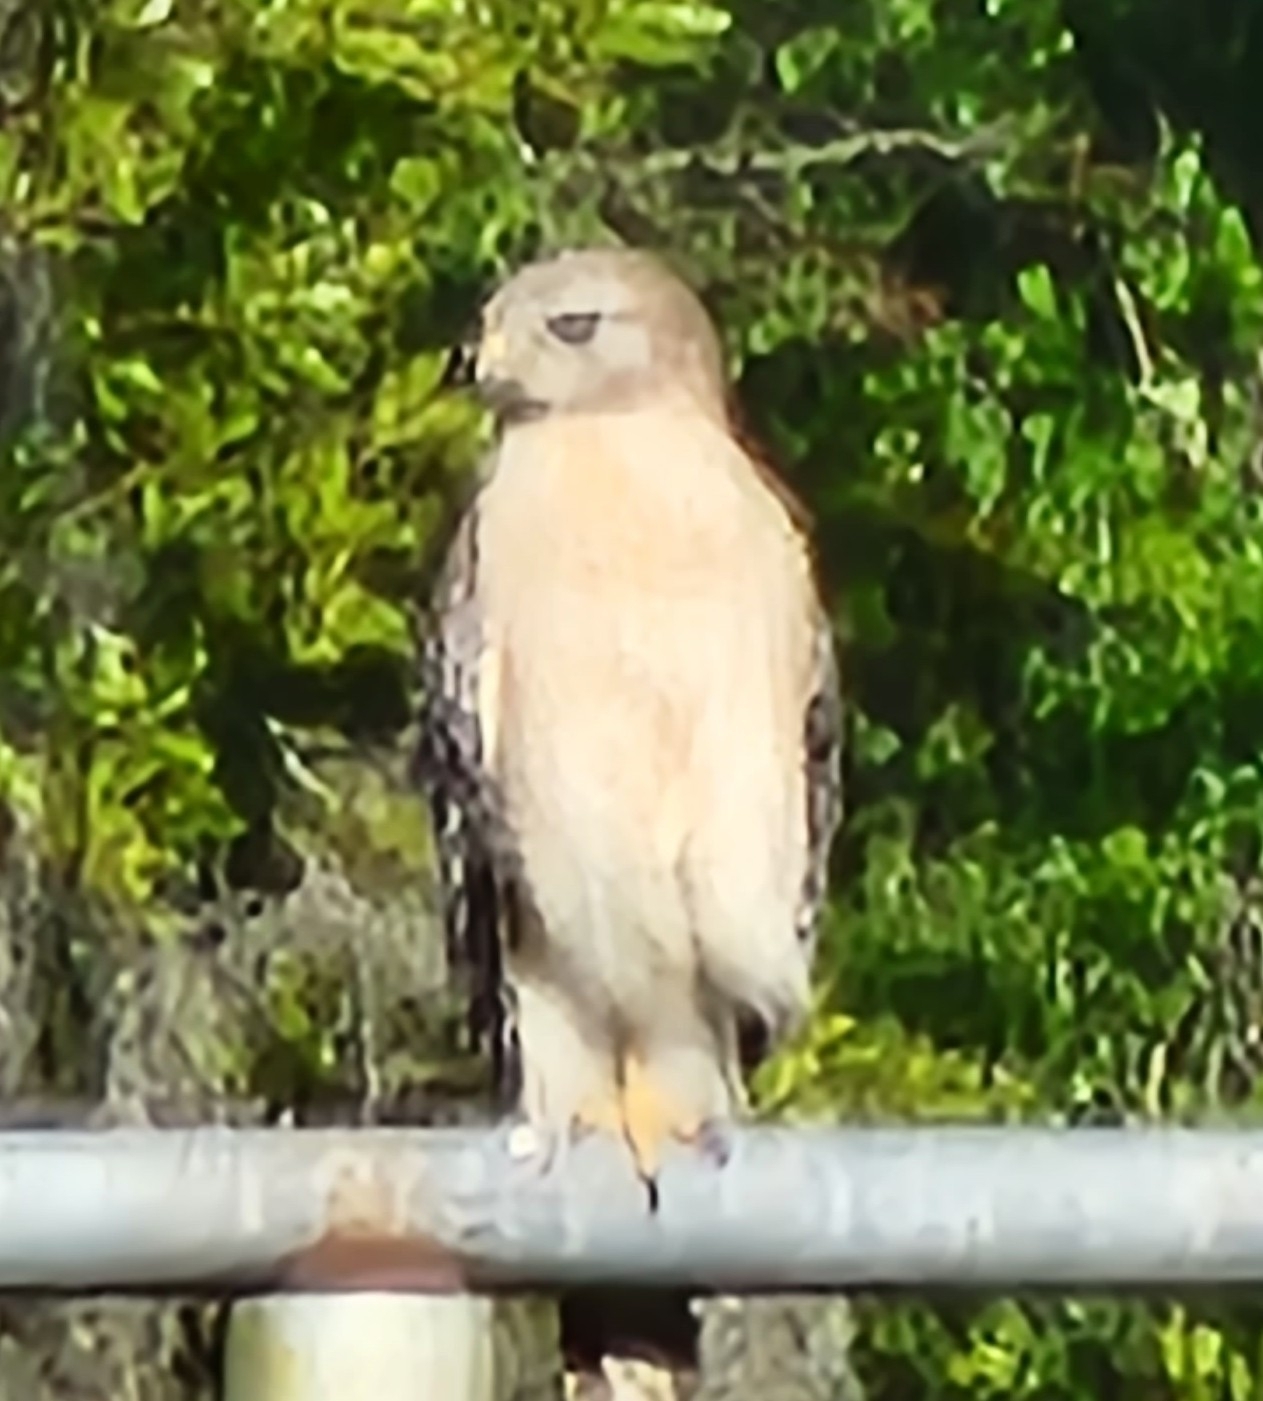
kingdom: Animalia
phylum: Chordata
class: Aves
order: Accipitriformes
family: Accipitridae
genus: Buteo
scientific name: Buteo lineatus
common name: Red-shouldered hawk
